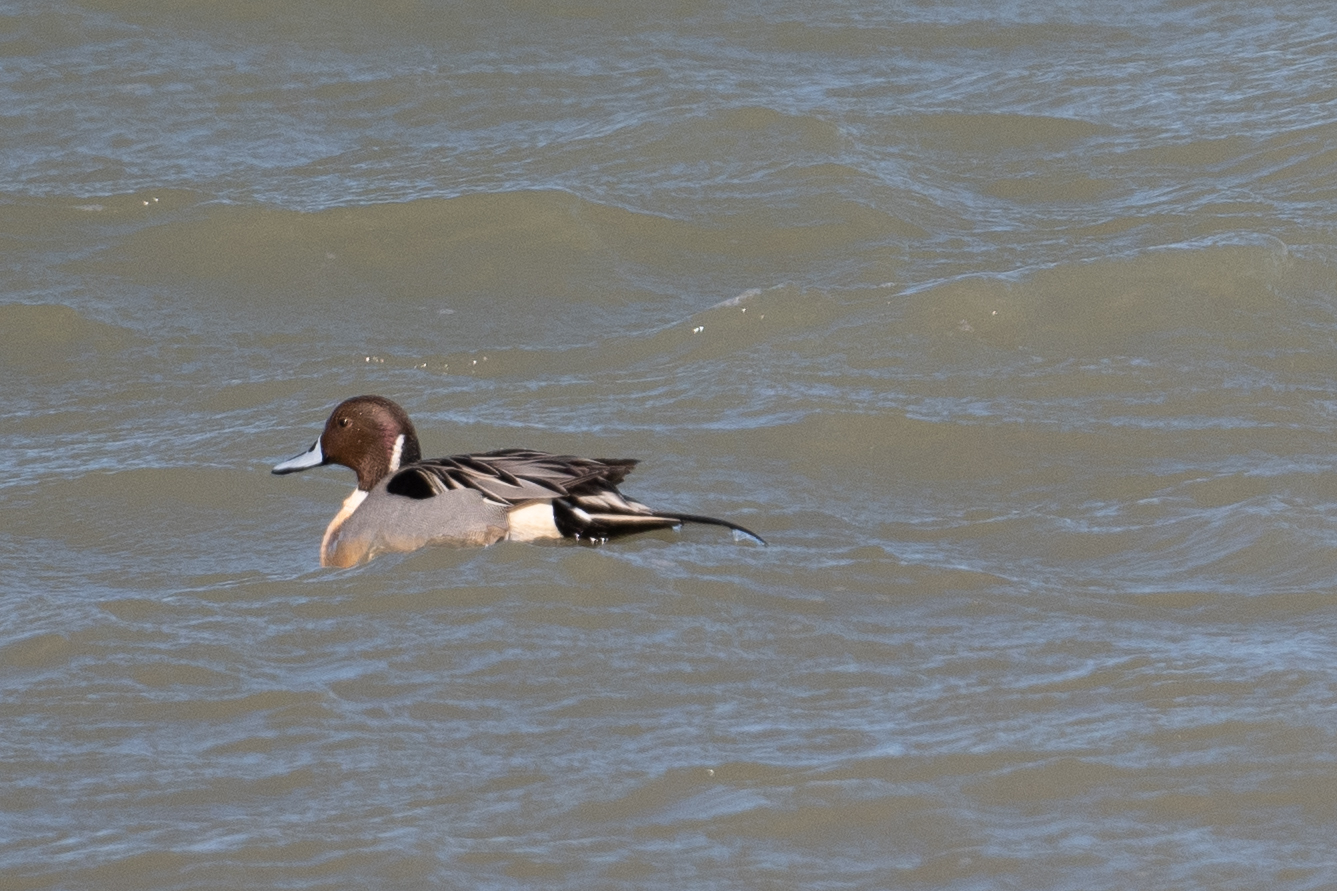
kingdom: Animalia
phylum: Chordata
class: Aves
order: Anseriformes
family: Anatidae
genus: Anas
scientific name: Anas acuta
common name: Northern pintail
